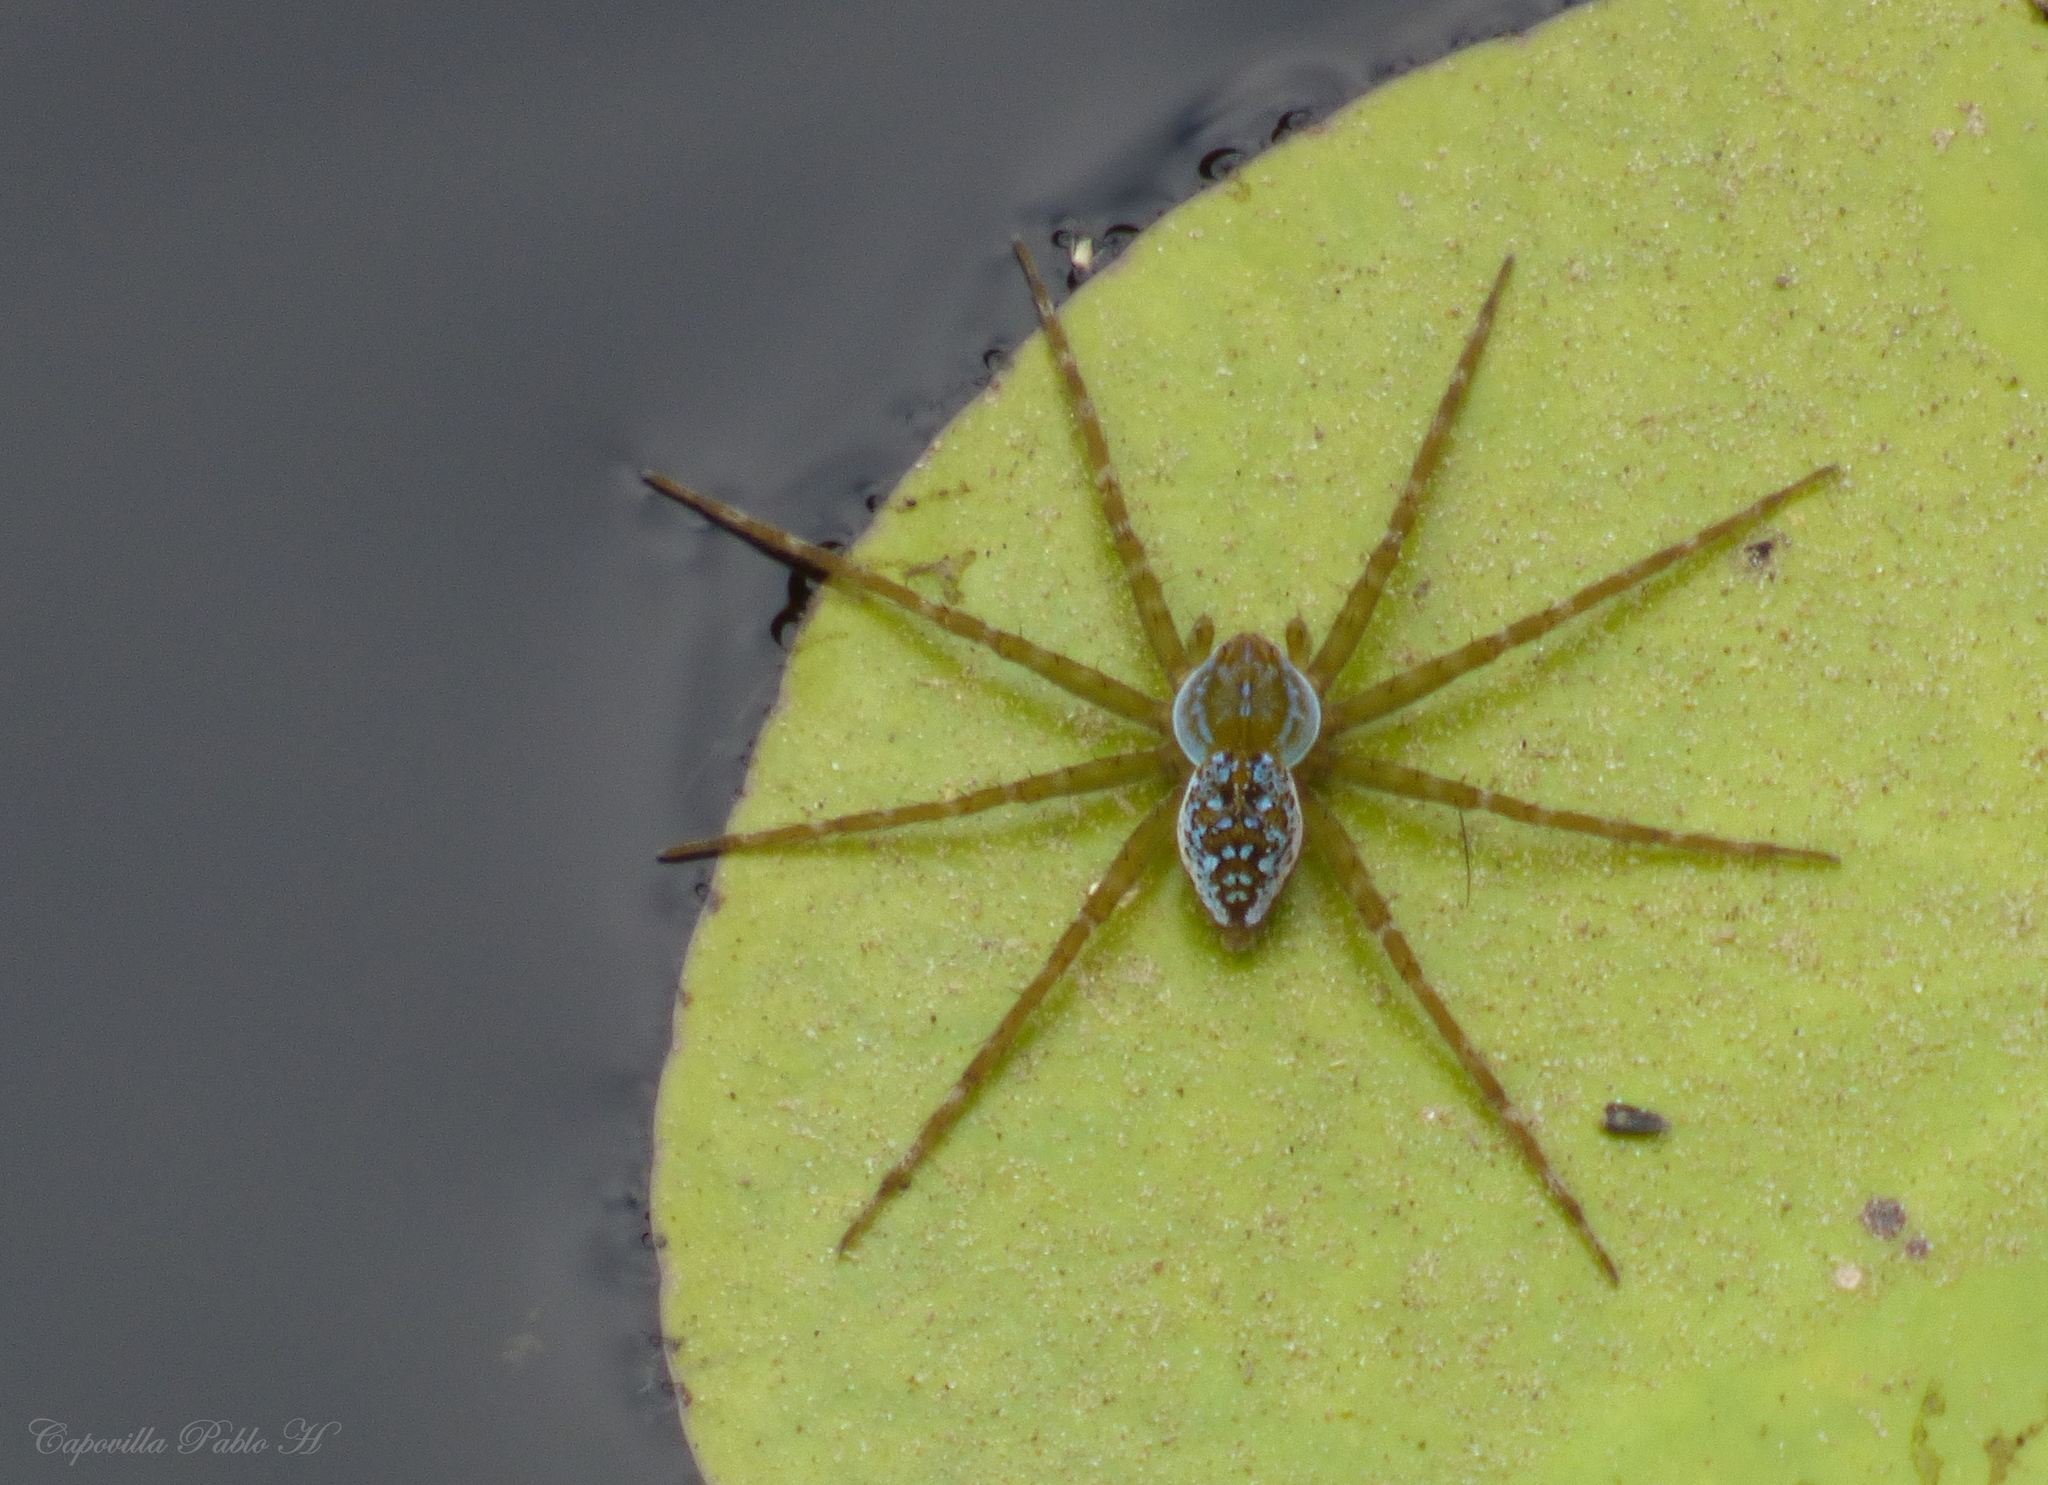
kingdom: Animalia
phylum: Arthropoda
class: Arachnida
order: Araneae
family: Pisauridae
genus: Thaumasia
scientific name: Thaumasia velox
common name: Nursery web spiders
